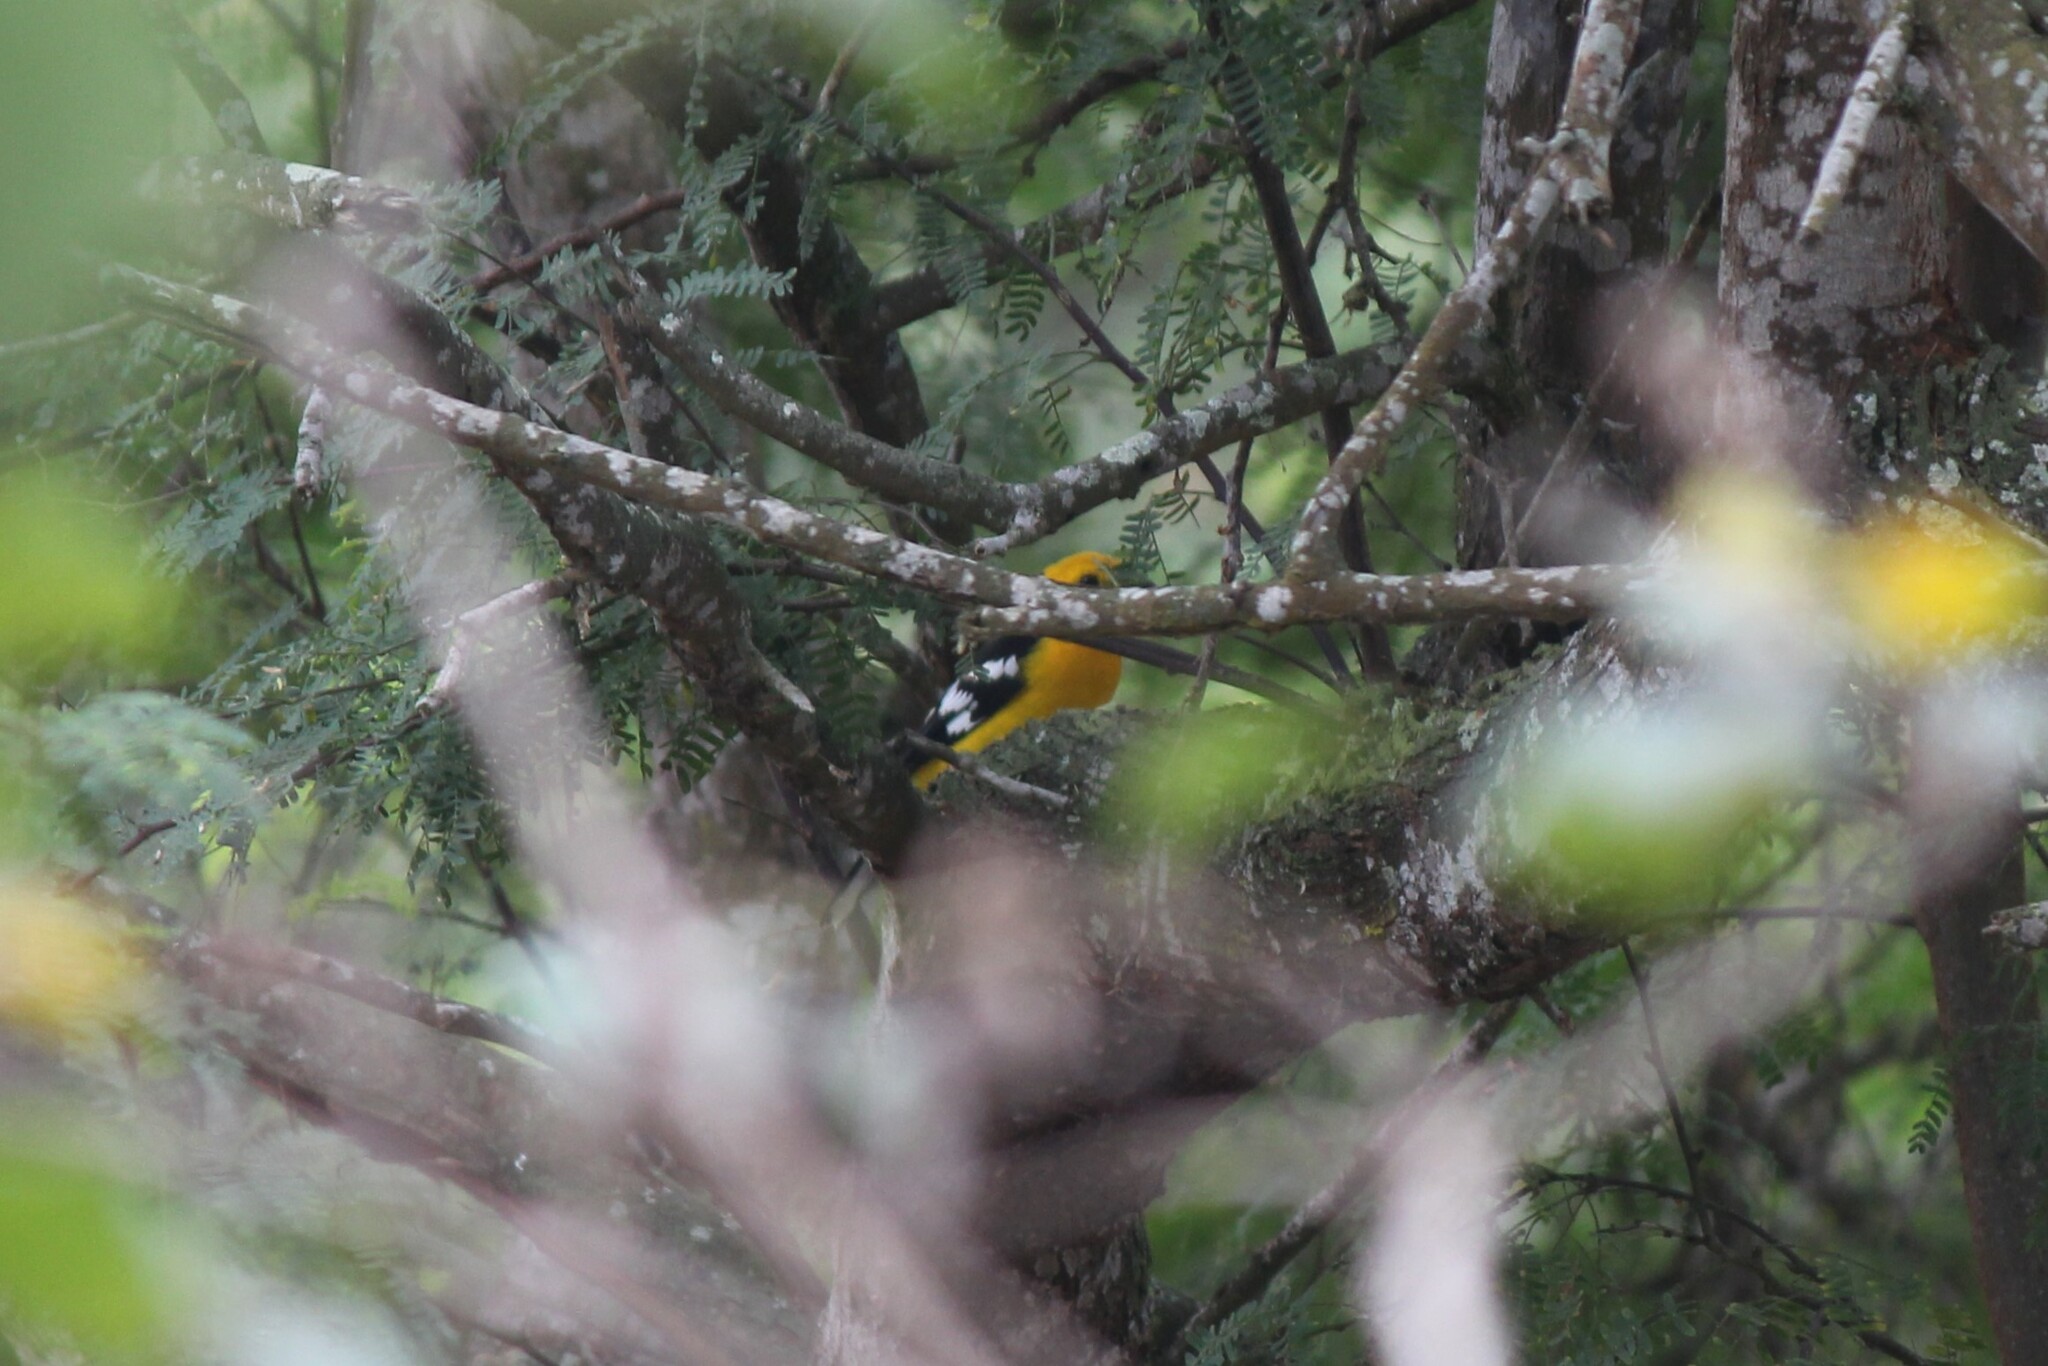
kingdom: Animalia
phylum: Chordata
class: Aves
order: Passeriformes
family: Cardinalidae
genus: Pheucticus
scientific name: Pheucticus chrysogaster
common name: Golden grosbeak
